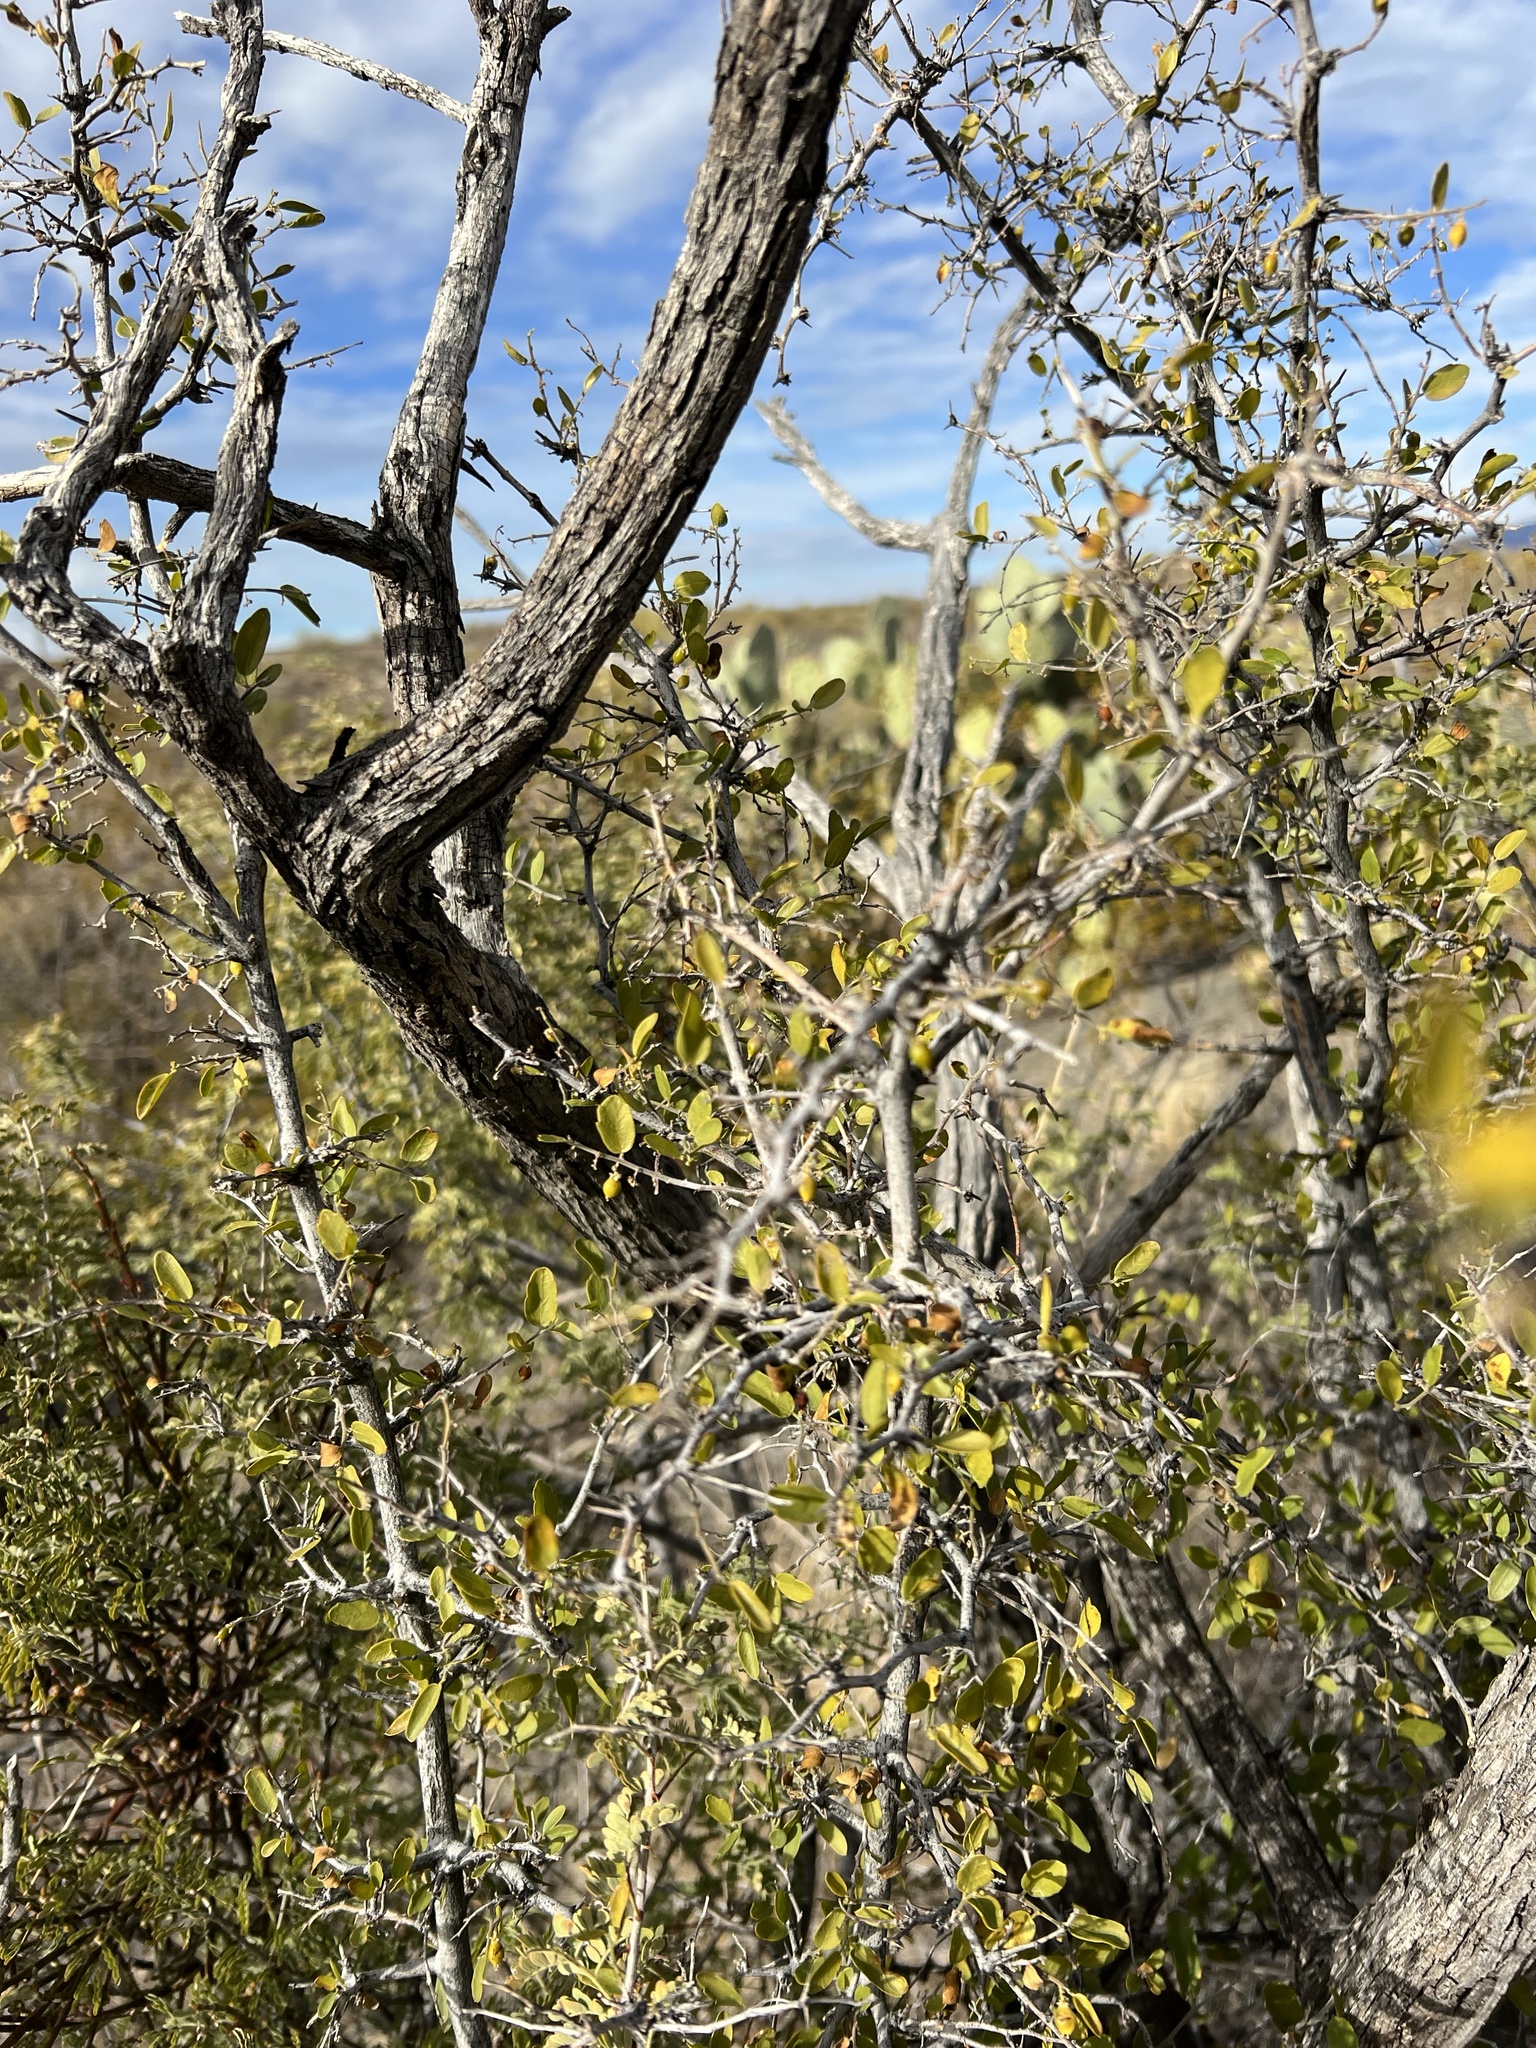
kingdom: Plantae
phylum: Tracheophyta
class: Magnoliopsida
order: Rosales
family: Cannabaceae
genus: Celtis
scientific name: Celtis pallida
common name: Desert hackberry
